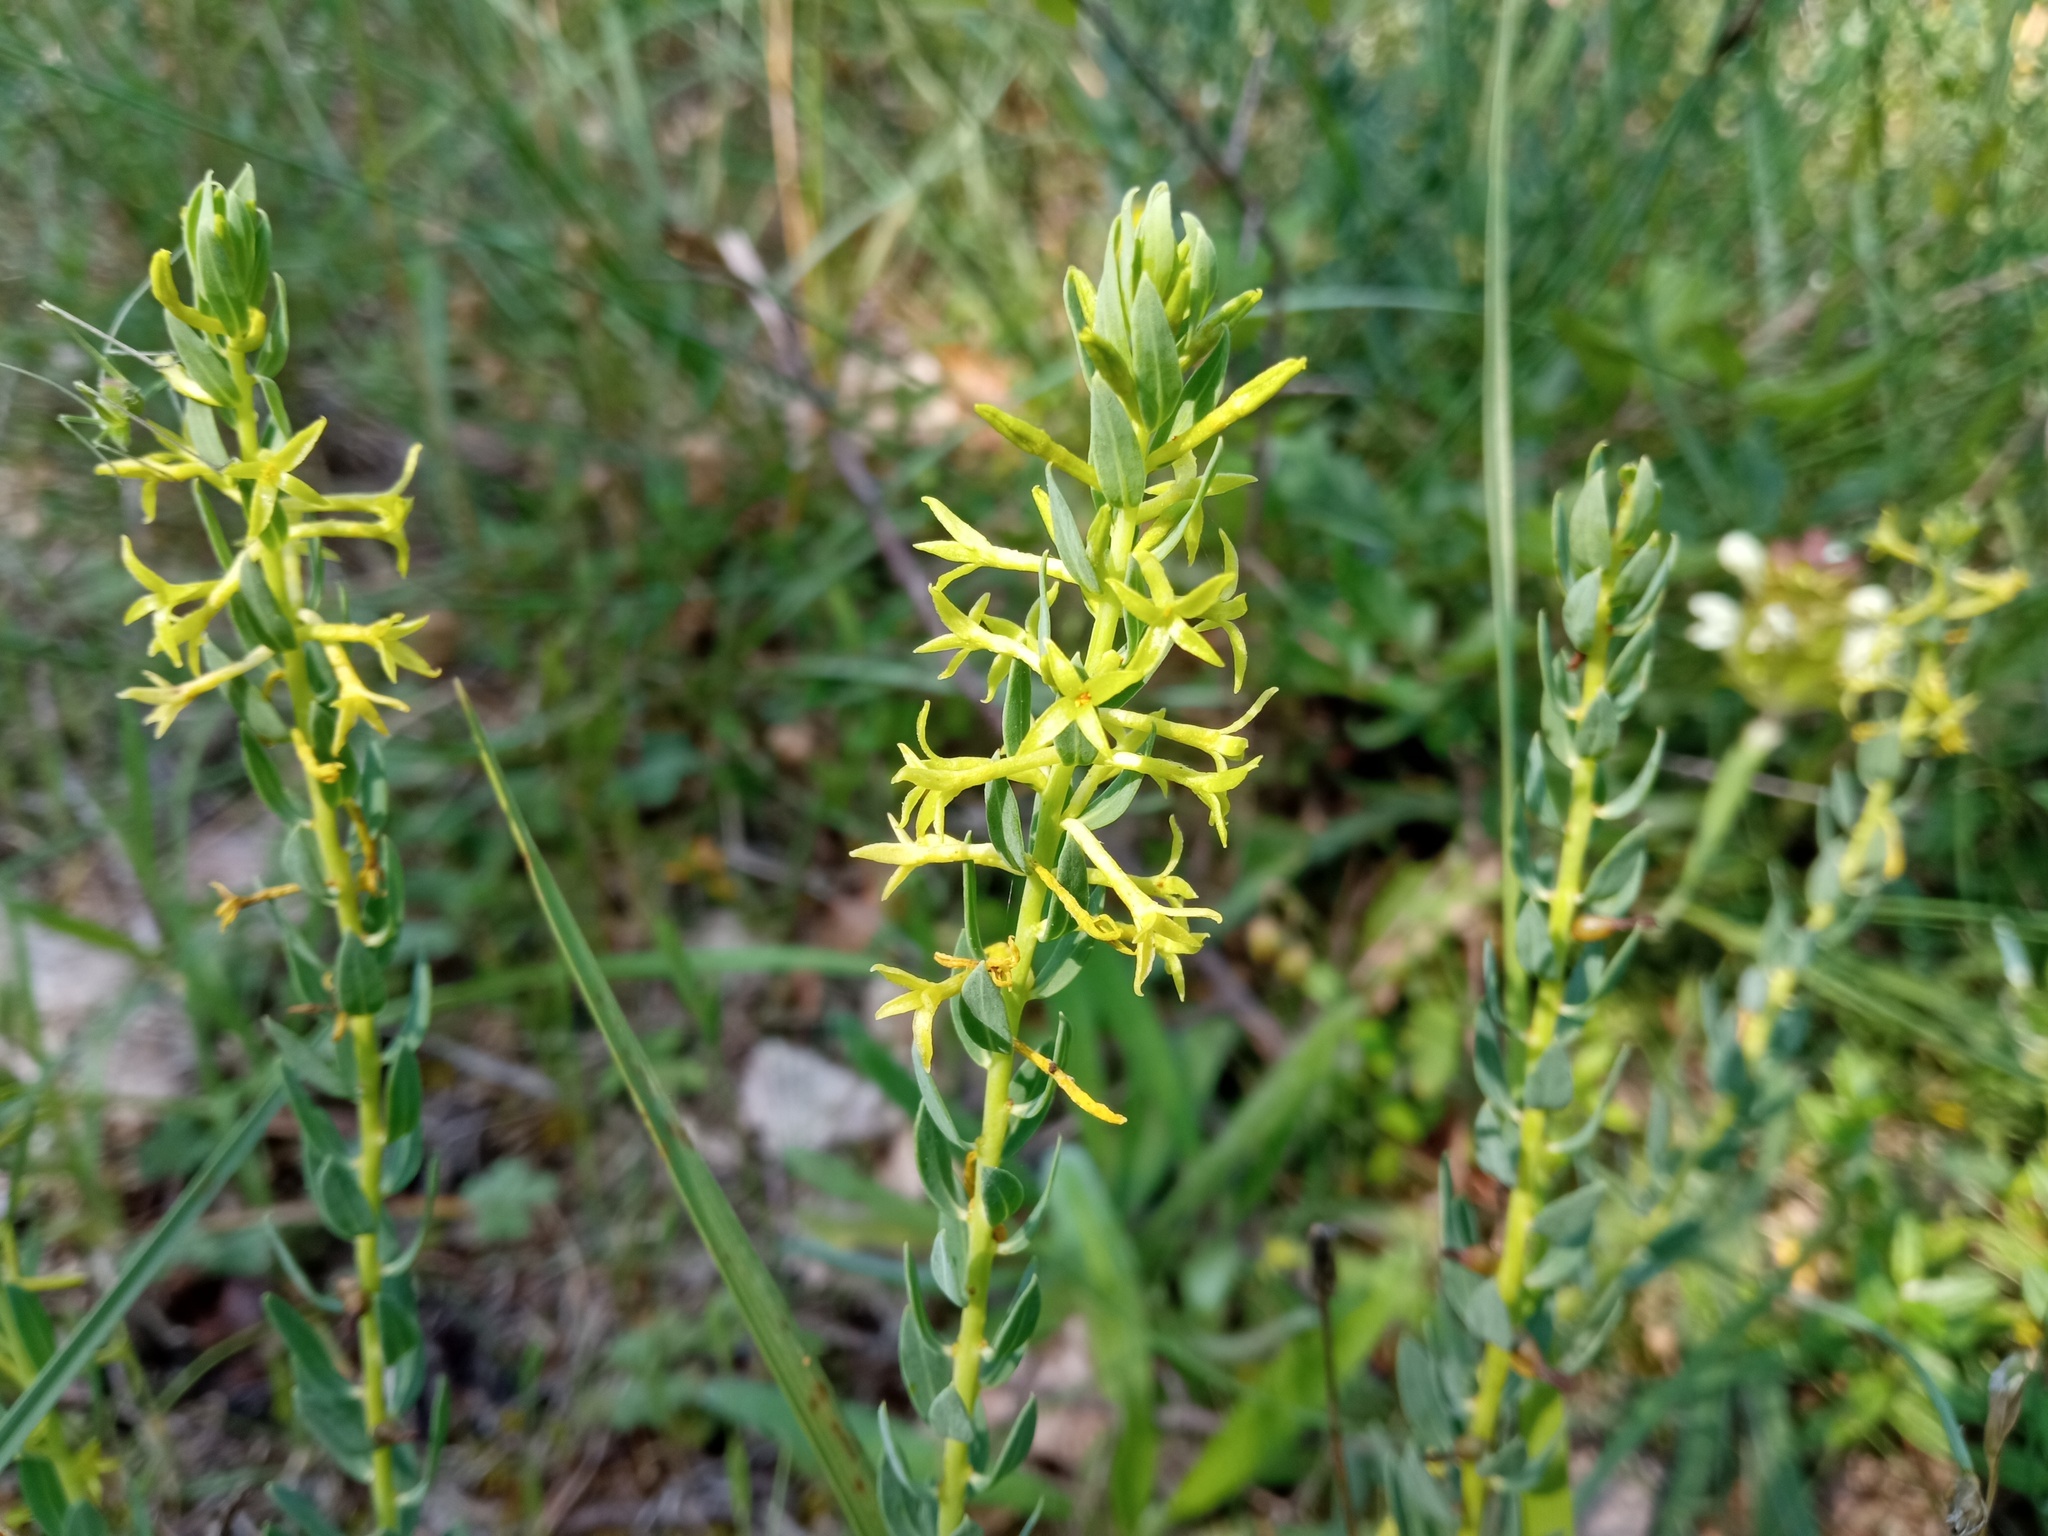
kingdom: Plantae
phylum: Tracheophyta
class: Magnoliopsida
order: Malvales
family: Thymelaeaceae
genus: Thymelaea
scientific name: Thymelaea sanamunda
